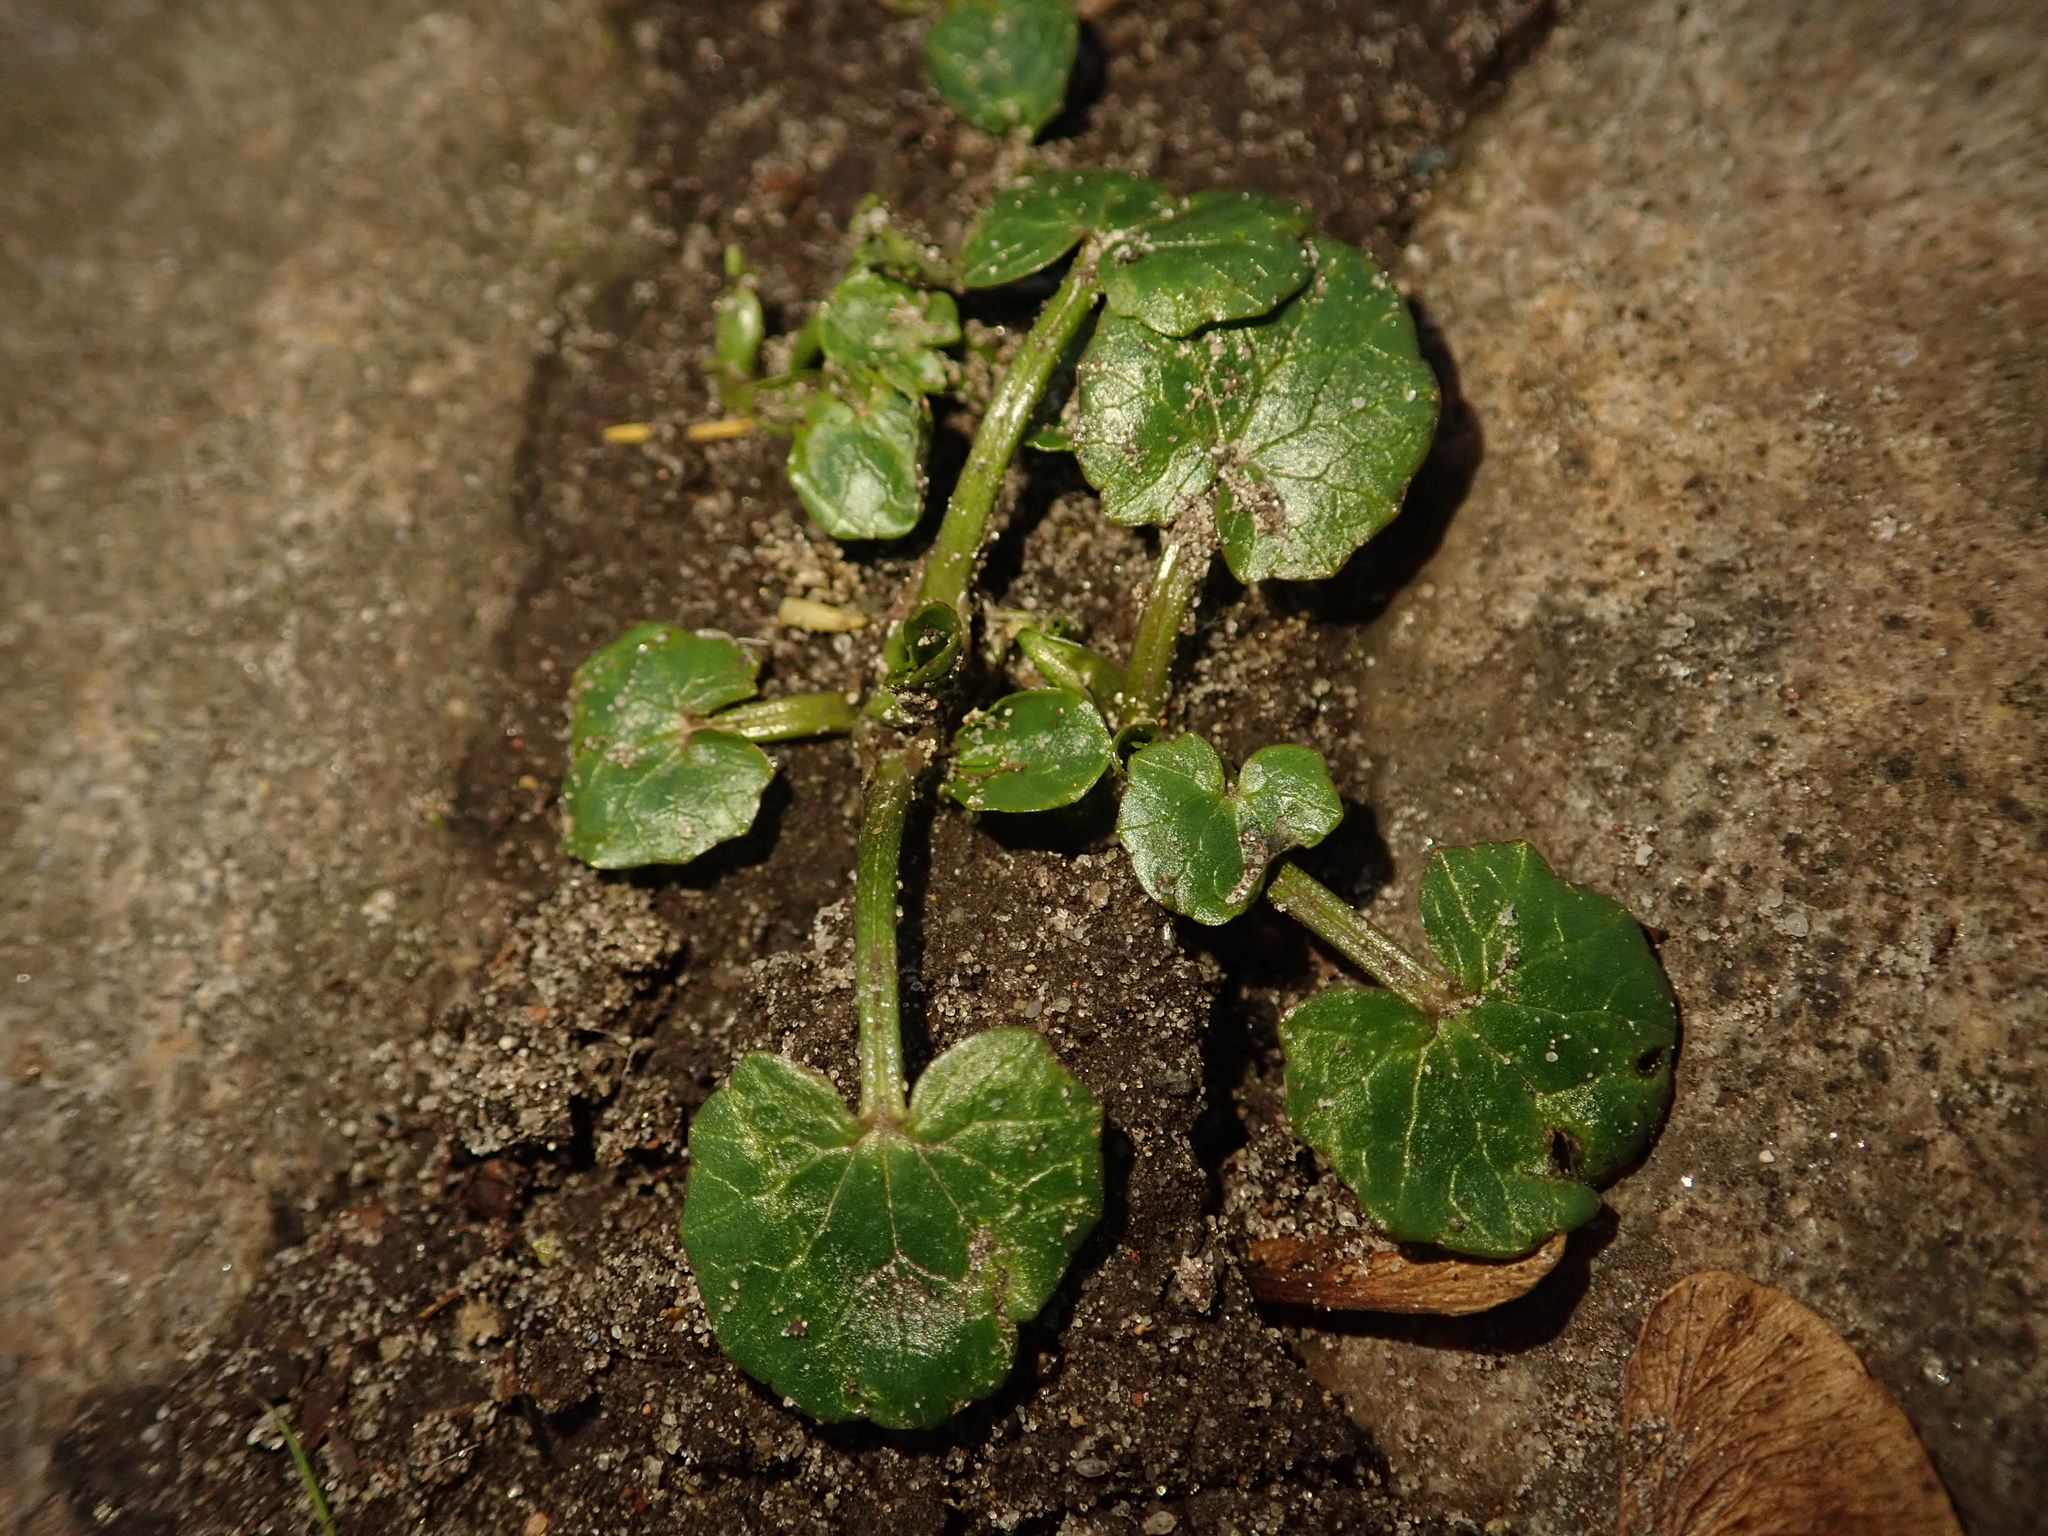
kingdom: Plantae
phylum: Tracheophyta
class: Magnoliopsida
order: Ranunculales
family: Ranunculaceae
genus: Ficaria
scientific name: Ficaria verna
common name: Lesser celandine
